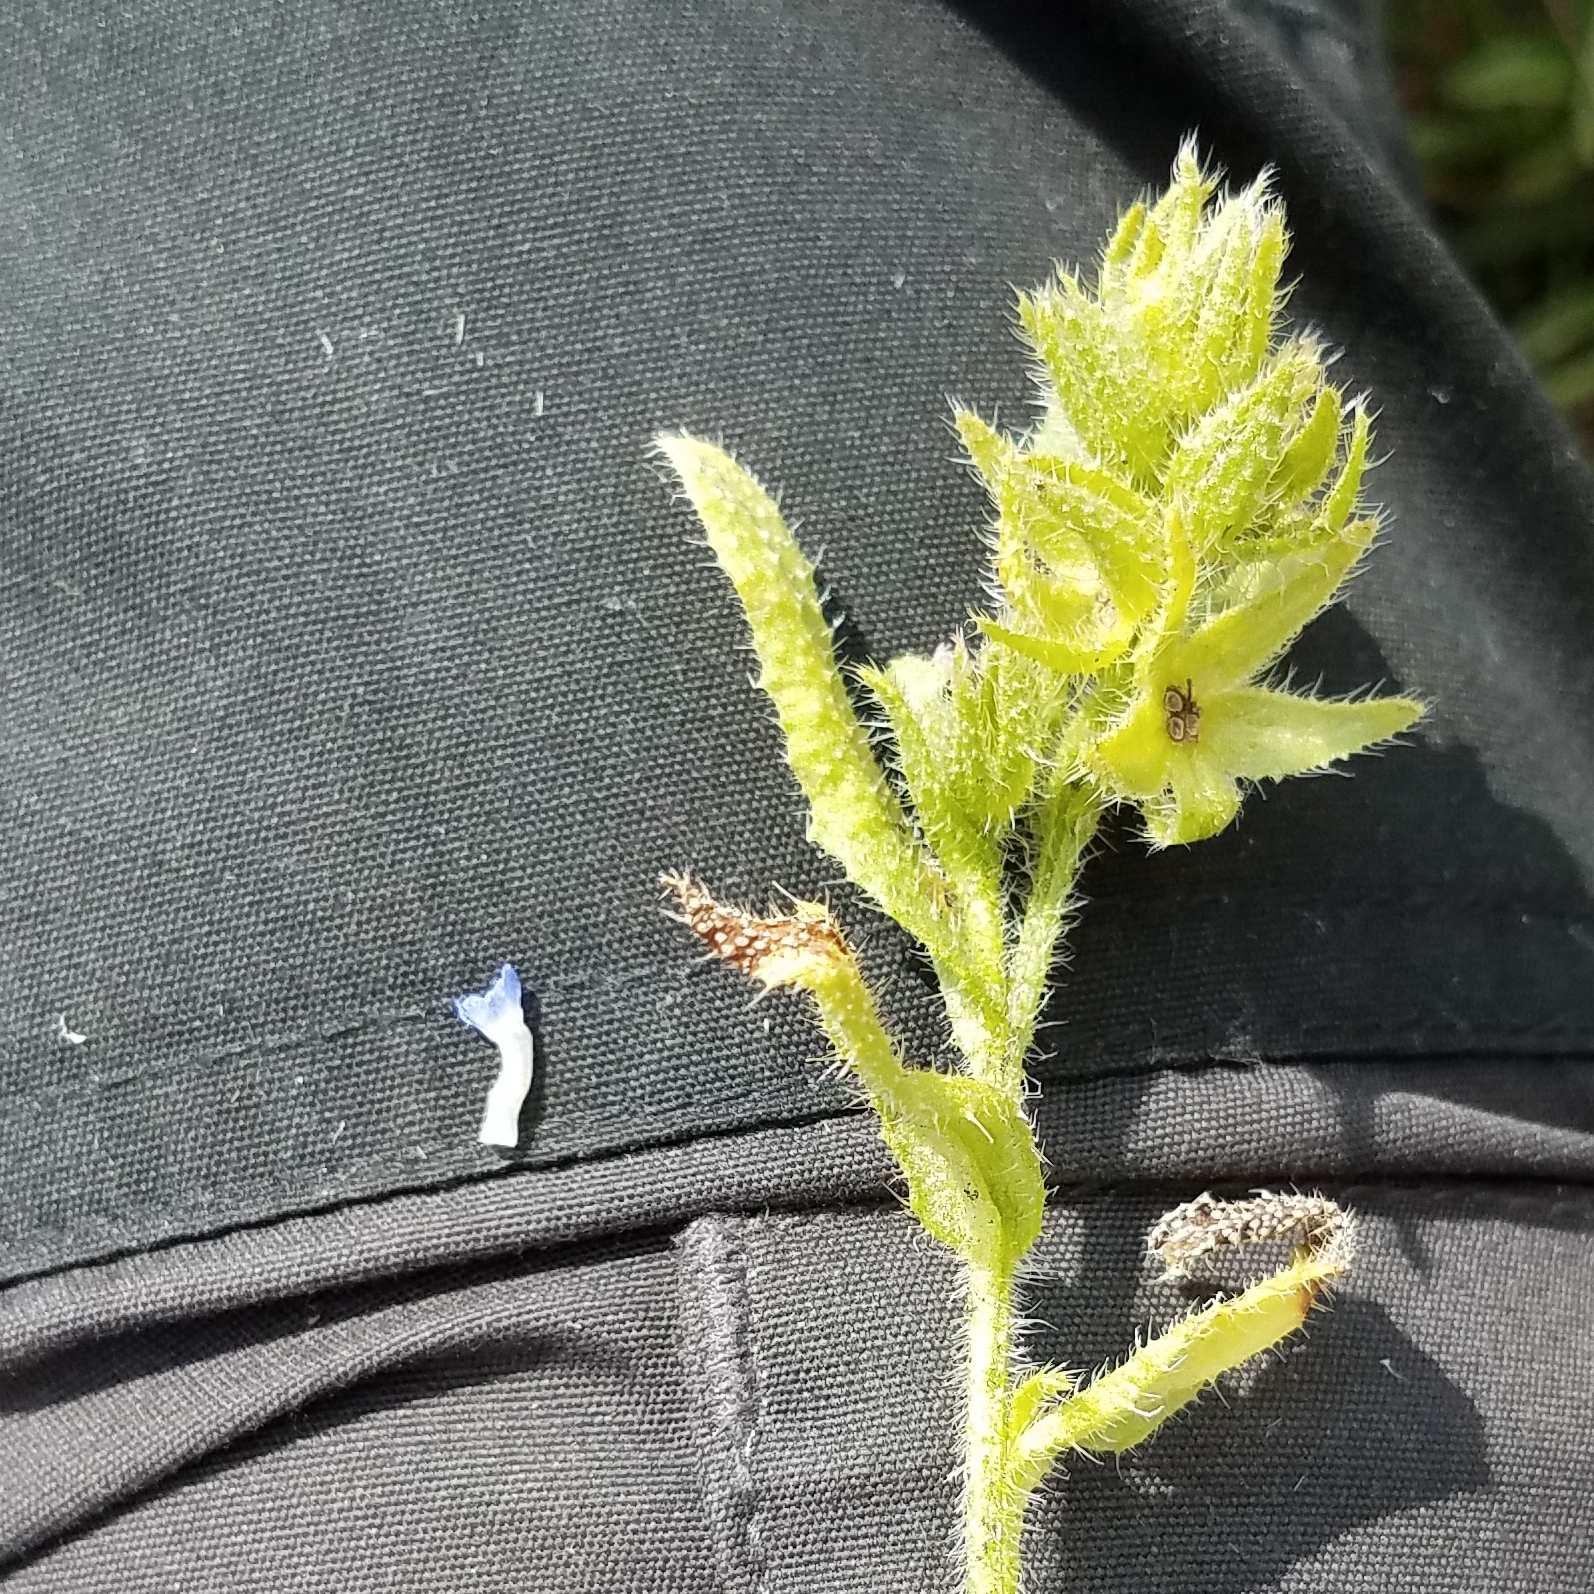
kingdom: Plantae
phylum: Tracheophyta
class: Magnoliopsida
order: Boraginales
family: Boraginaceae
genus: Lycopsis
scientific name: Lycopsis arvensis
